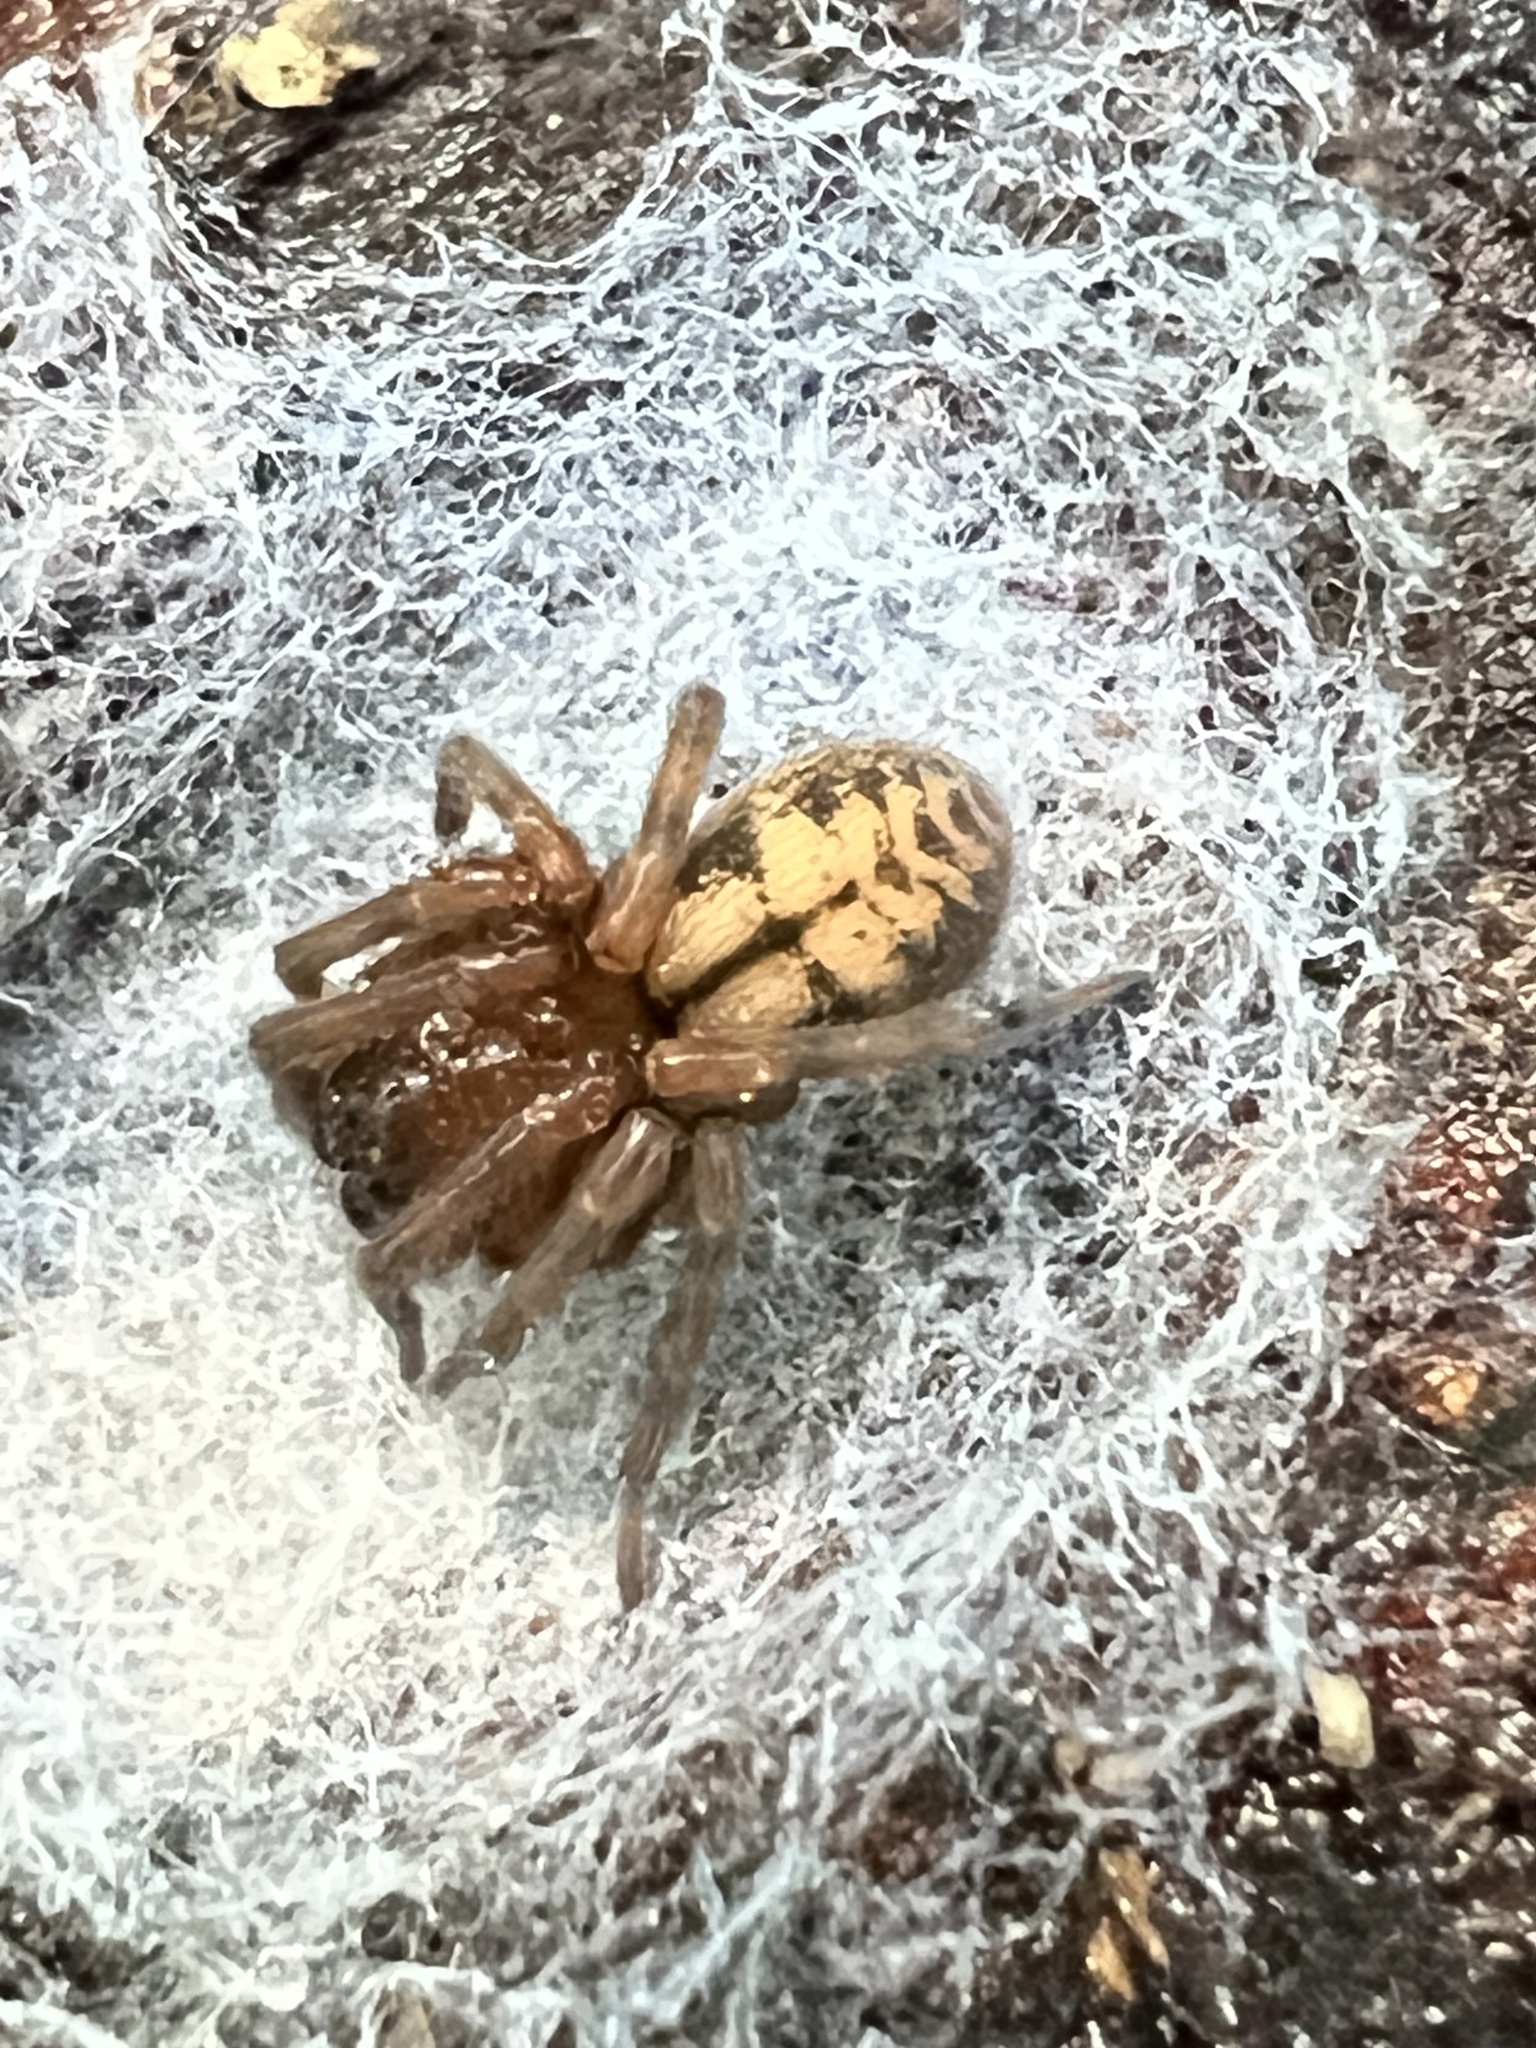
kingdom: Animalia
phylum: Arthropoda
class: Arachnida
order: Araneae
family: Amaurobiidae
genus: Callobius
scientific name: Callobius pictus
